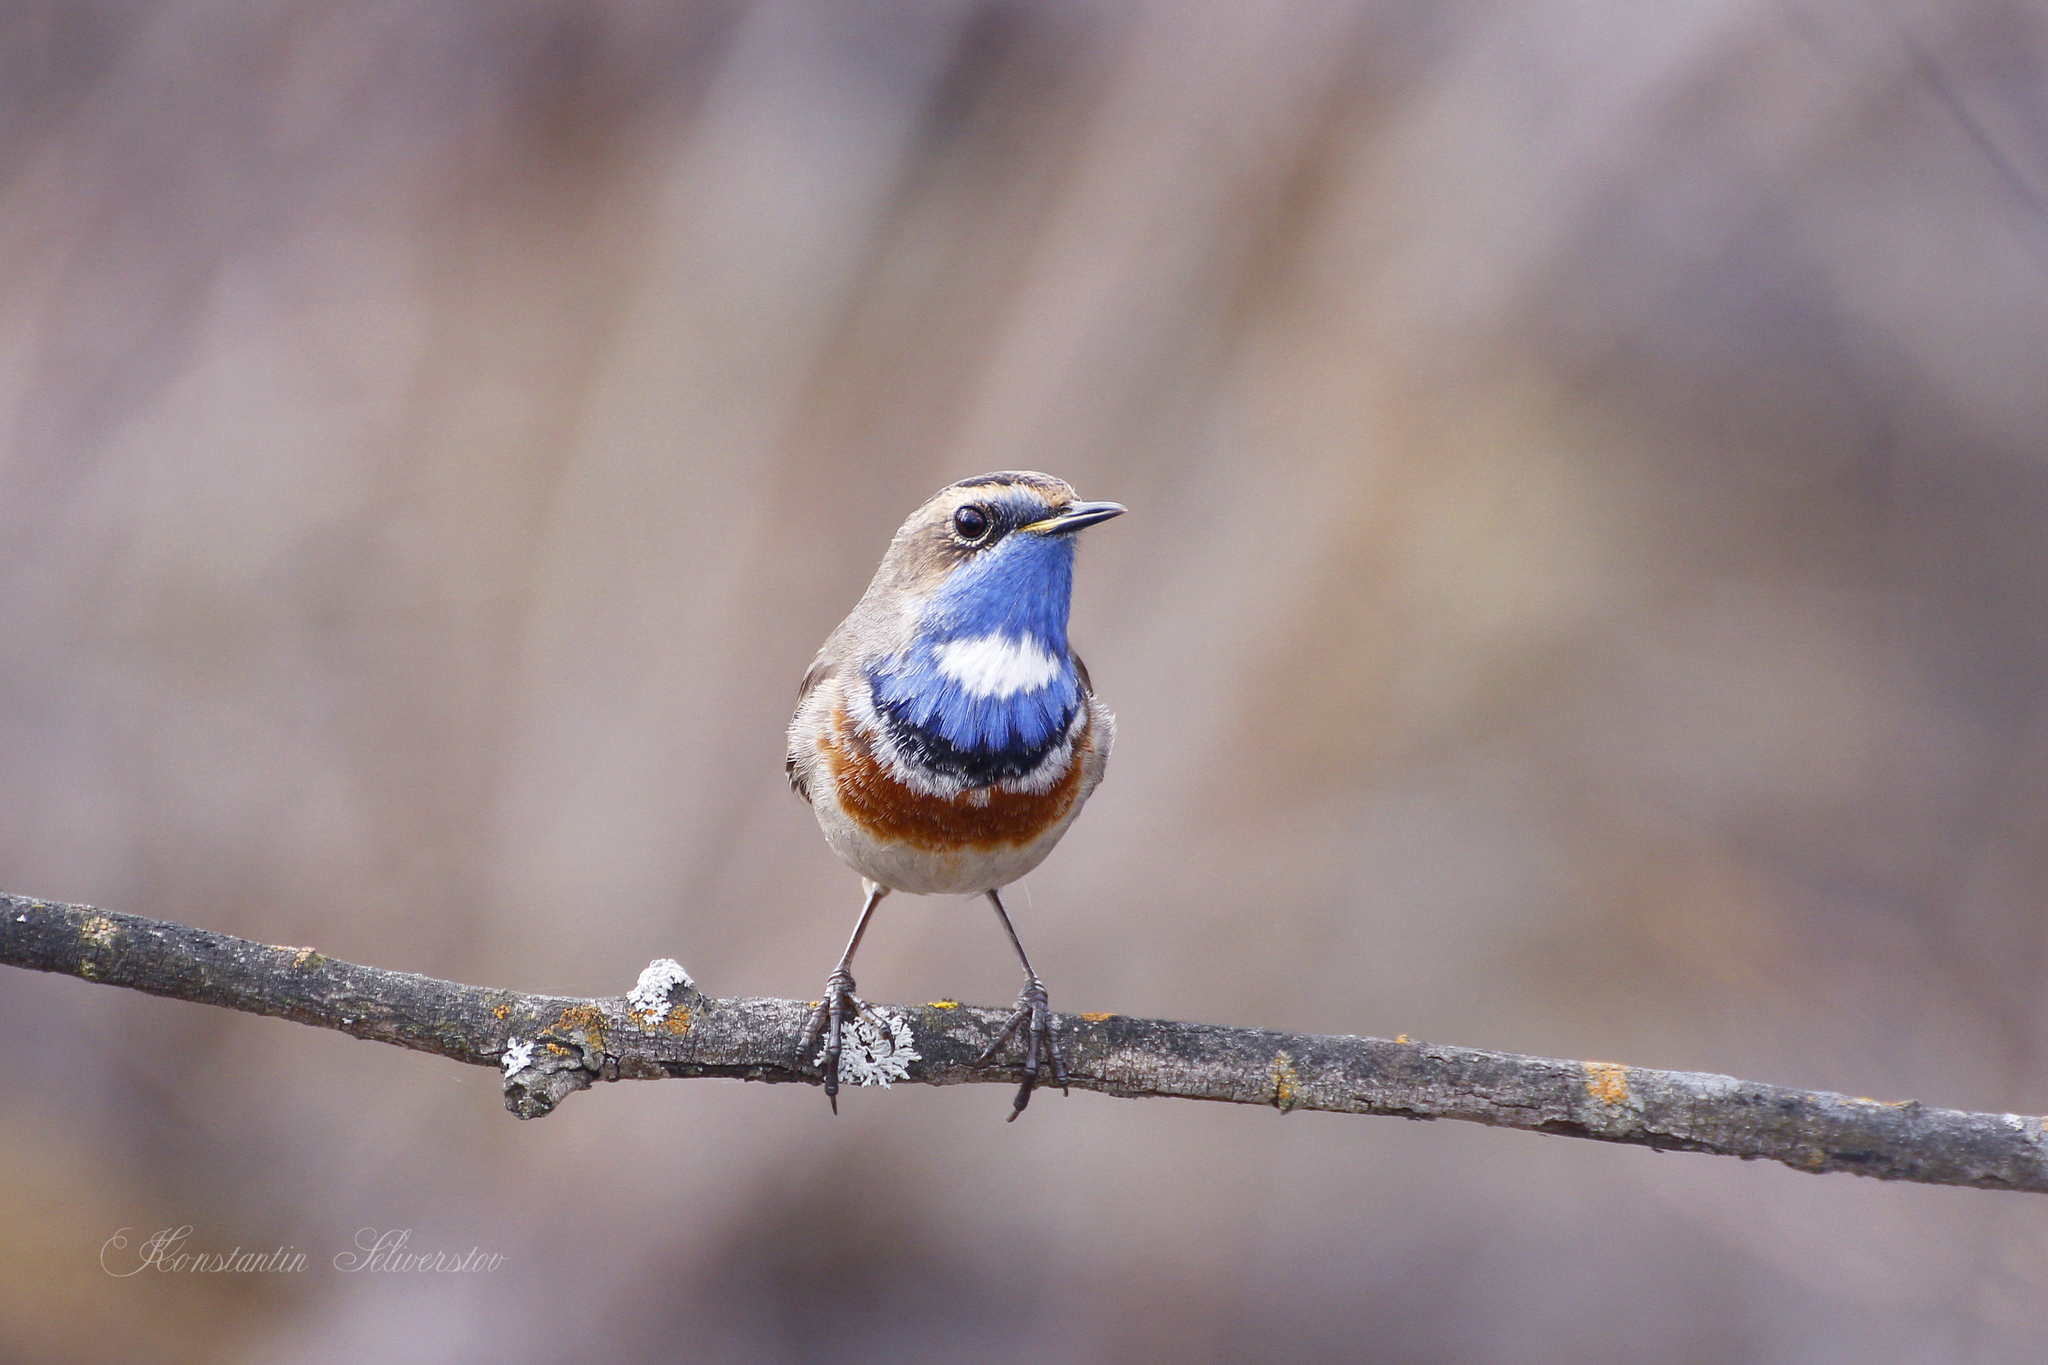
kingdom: Animalia
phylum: Chordata
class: Aves
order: Passeriformes
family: Muscicapidae
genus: Luscinia
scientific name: Luscinia svecica
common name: Bluethroat
